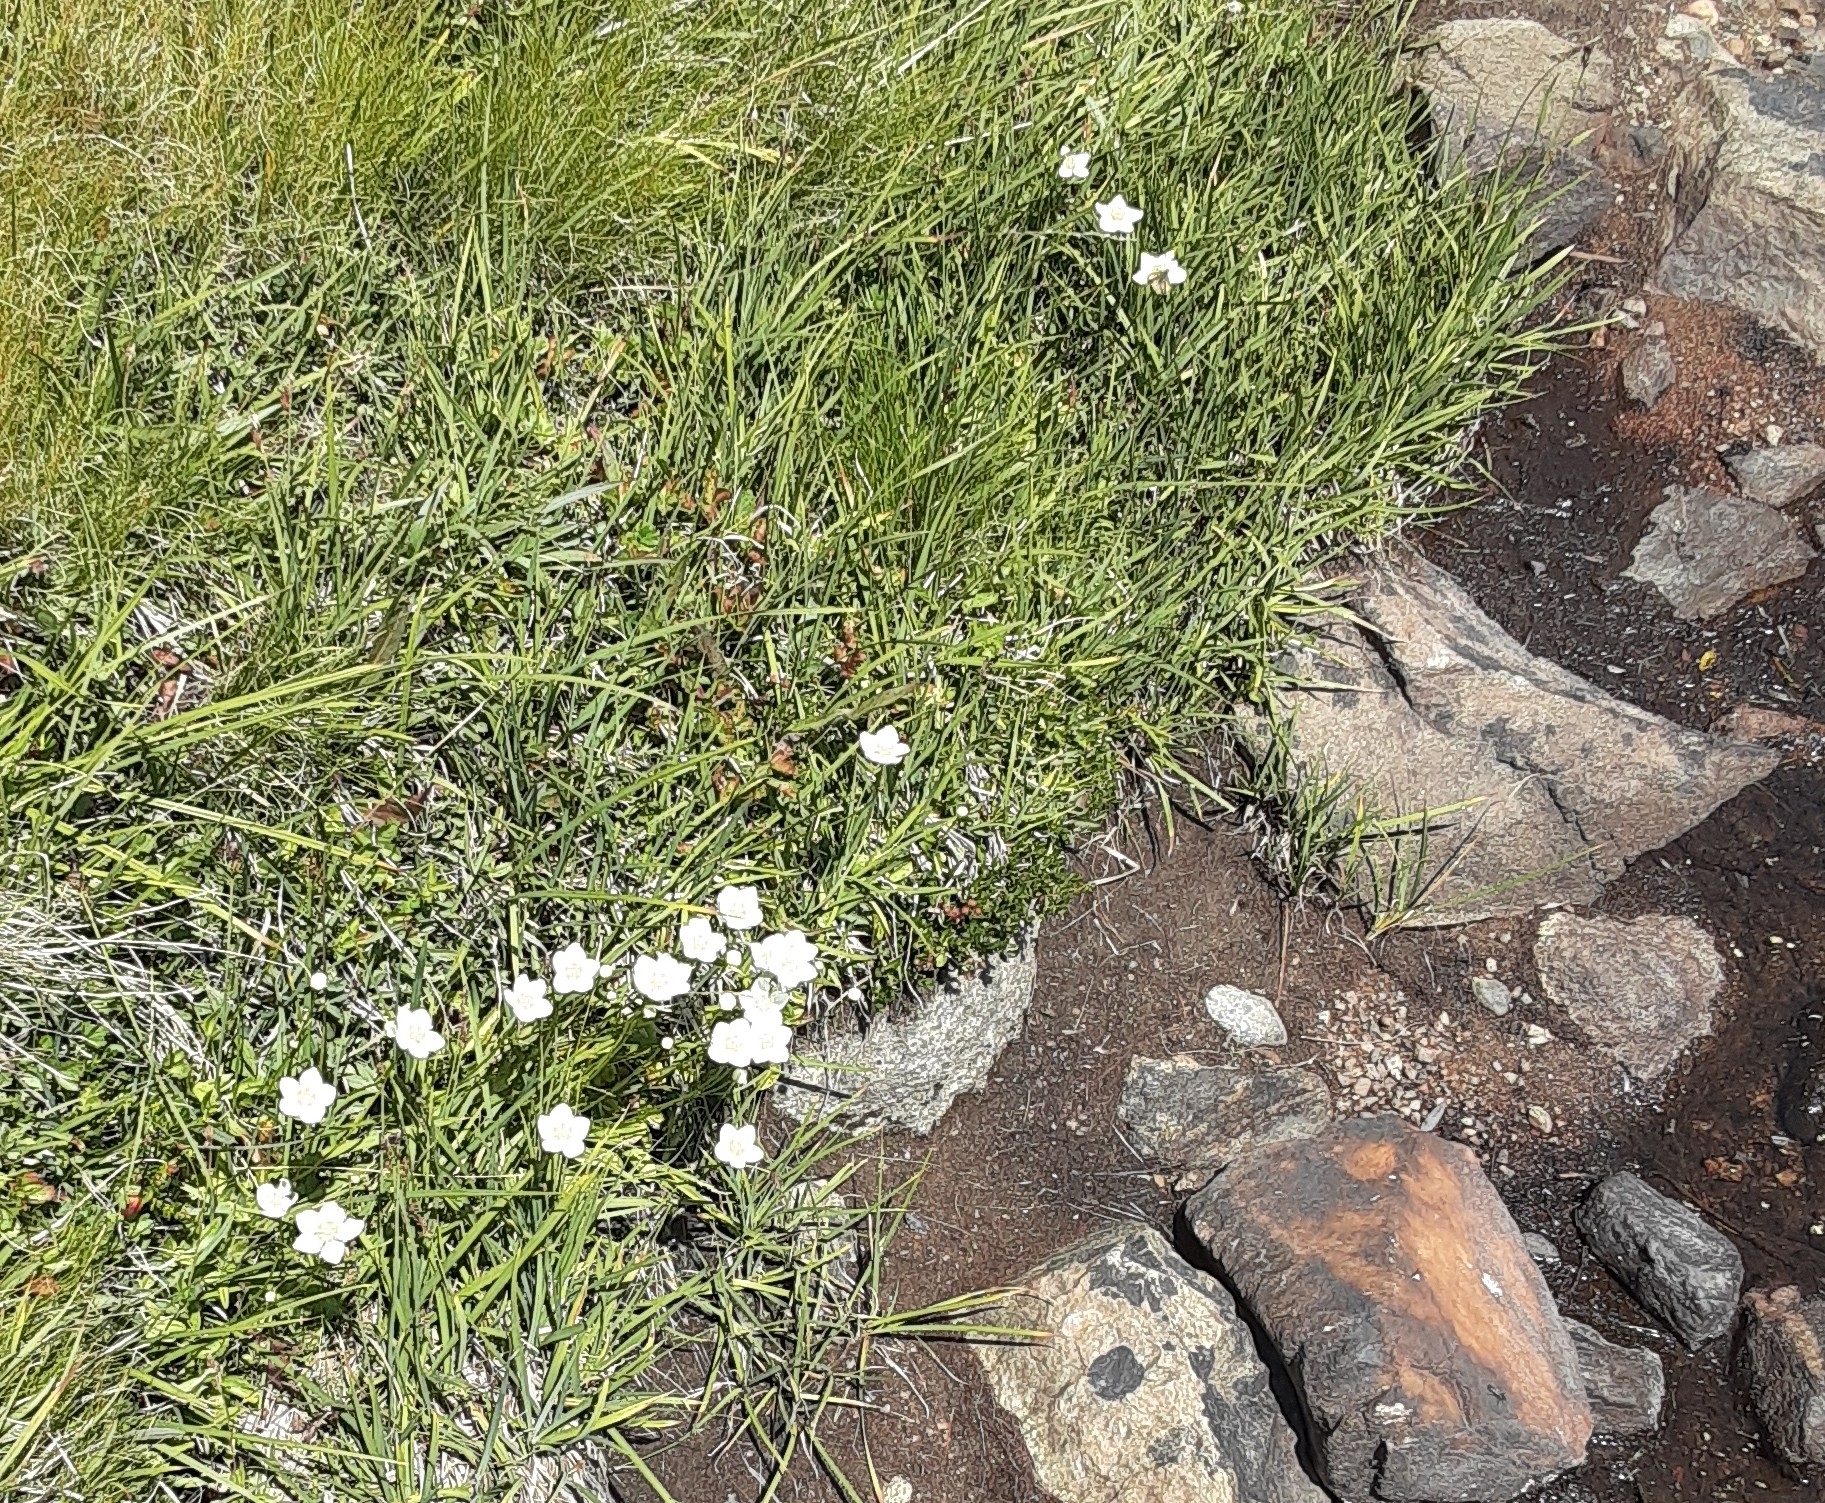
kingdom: Plantae
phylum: Tracheophyta
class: Magnoliopsida
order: Celastrales
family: Parnassiaceae
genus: Parnassia
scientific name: Parnassia palustris
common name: Grass-of-parnassus
